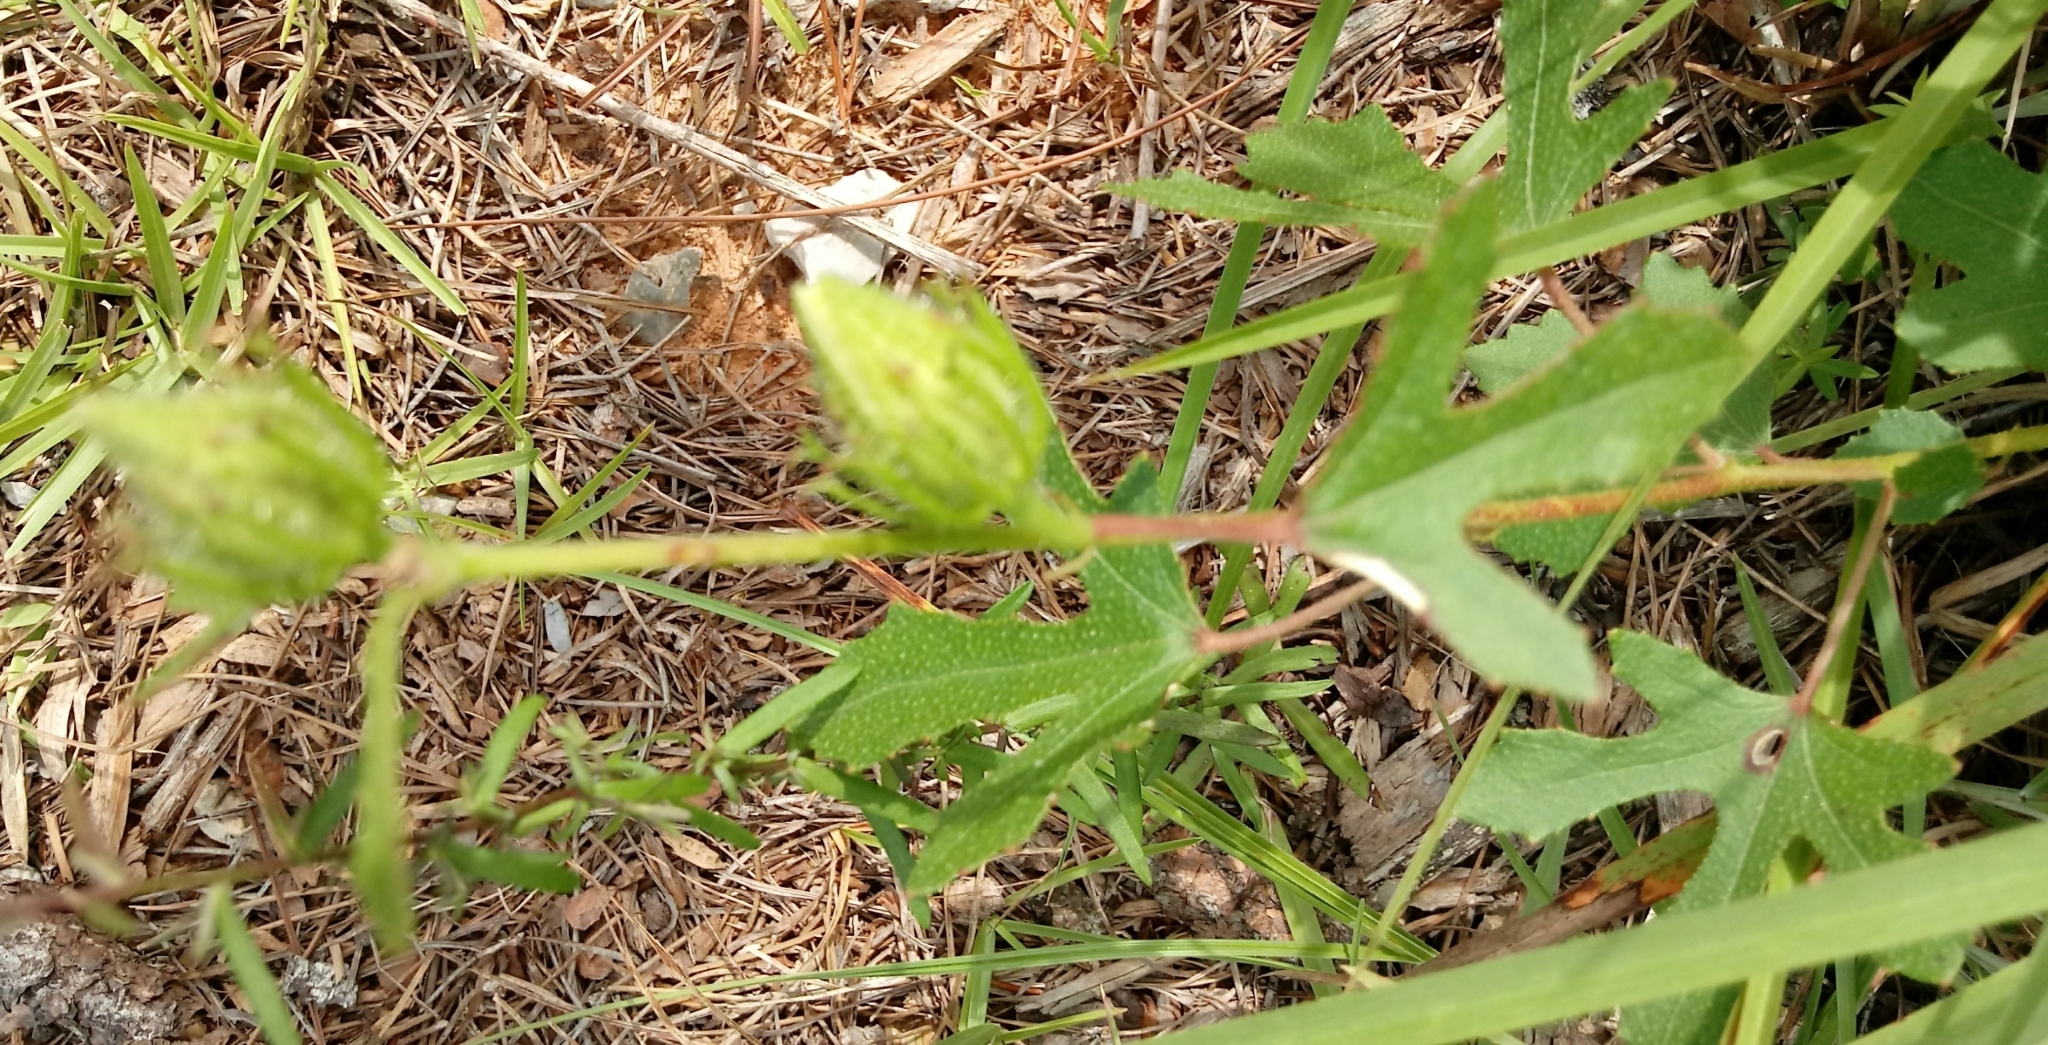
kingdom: Plantae
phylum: Tracheophyta
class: Magnoliopsida
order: Malvales
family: Malvaceae
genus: Hibiscus
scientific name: Hibiscus aculeatus
